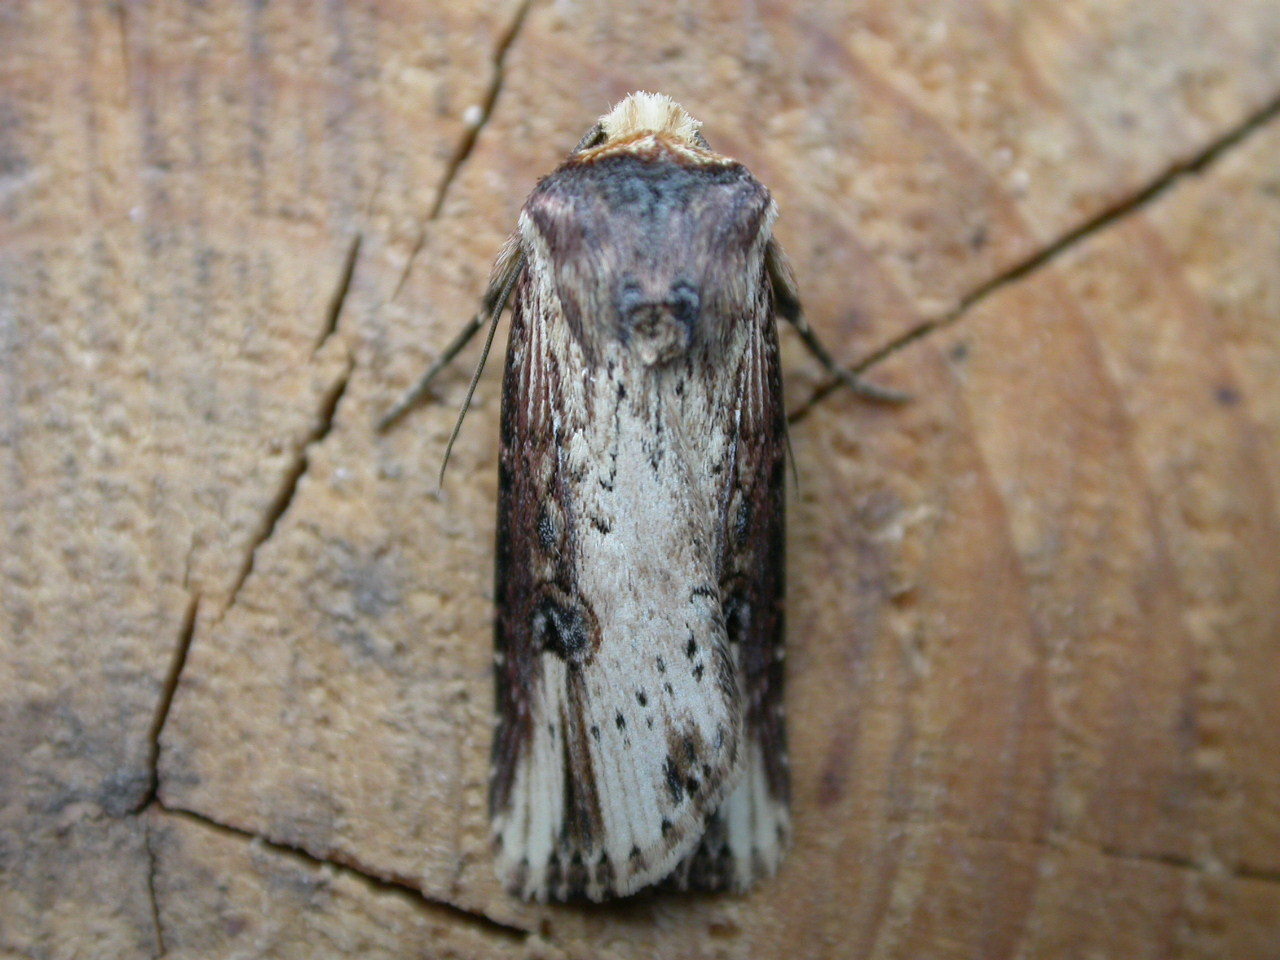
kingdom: Animalia
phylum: Arthropoda
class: Insecta
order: Lepidoptera
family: Noctuidae
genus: Axylia
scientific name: Axylia putris
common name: Flame
